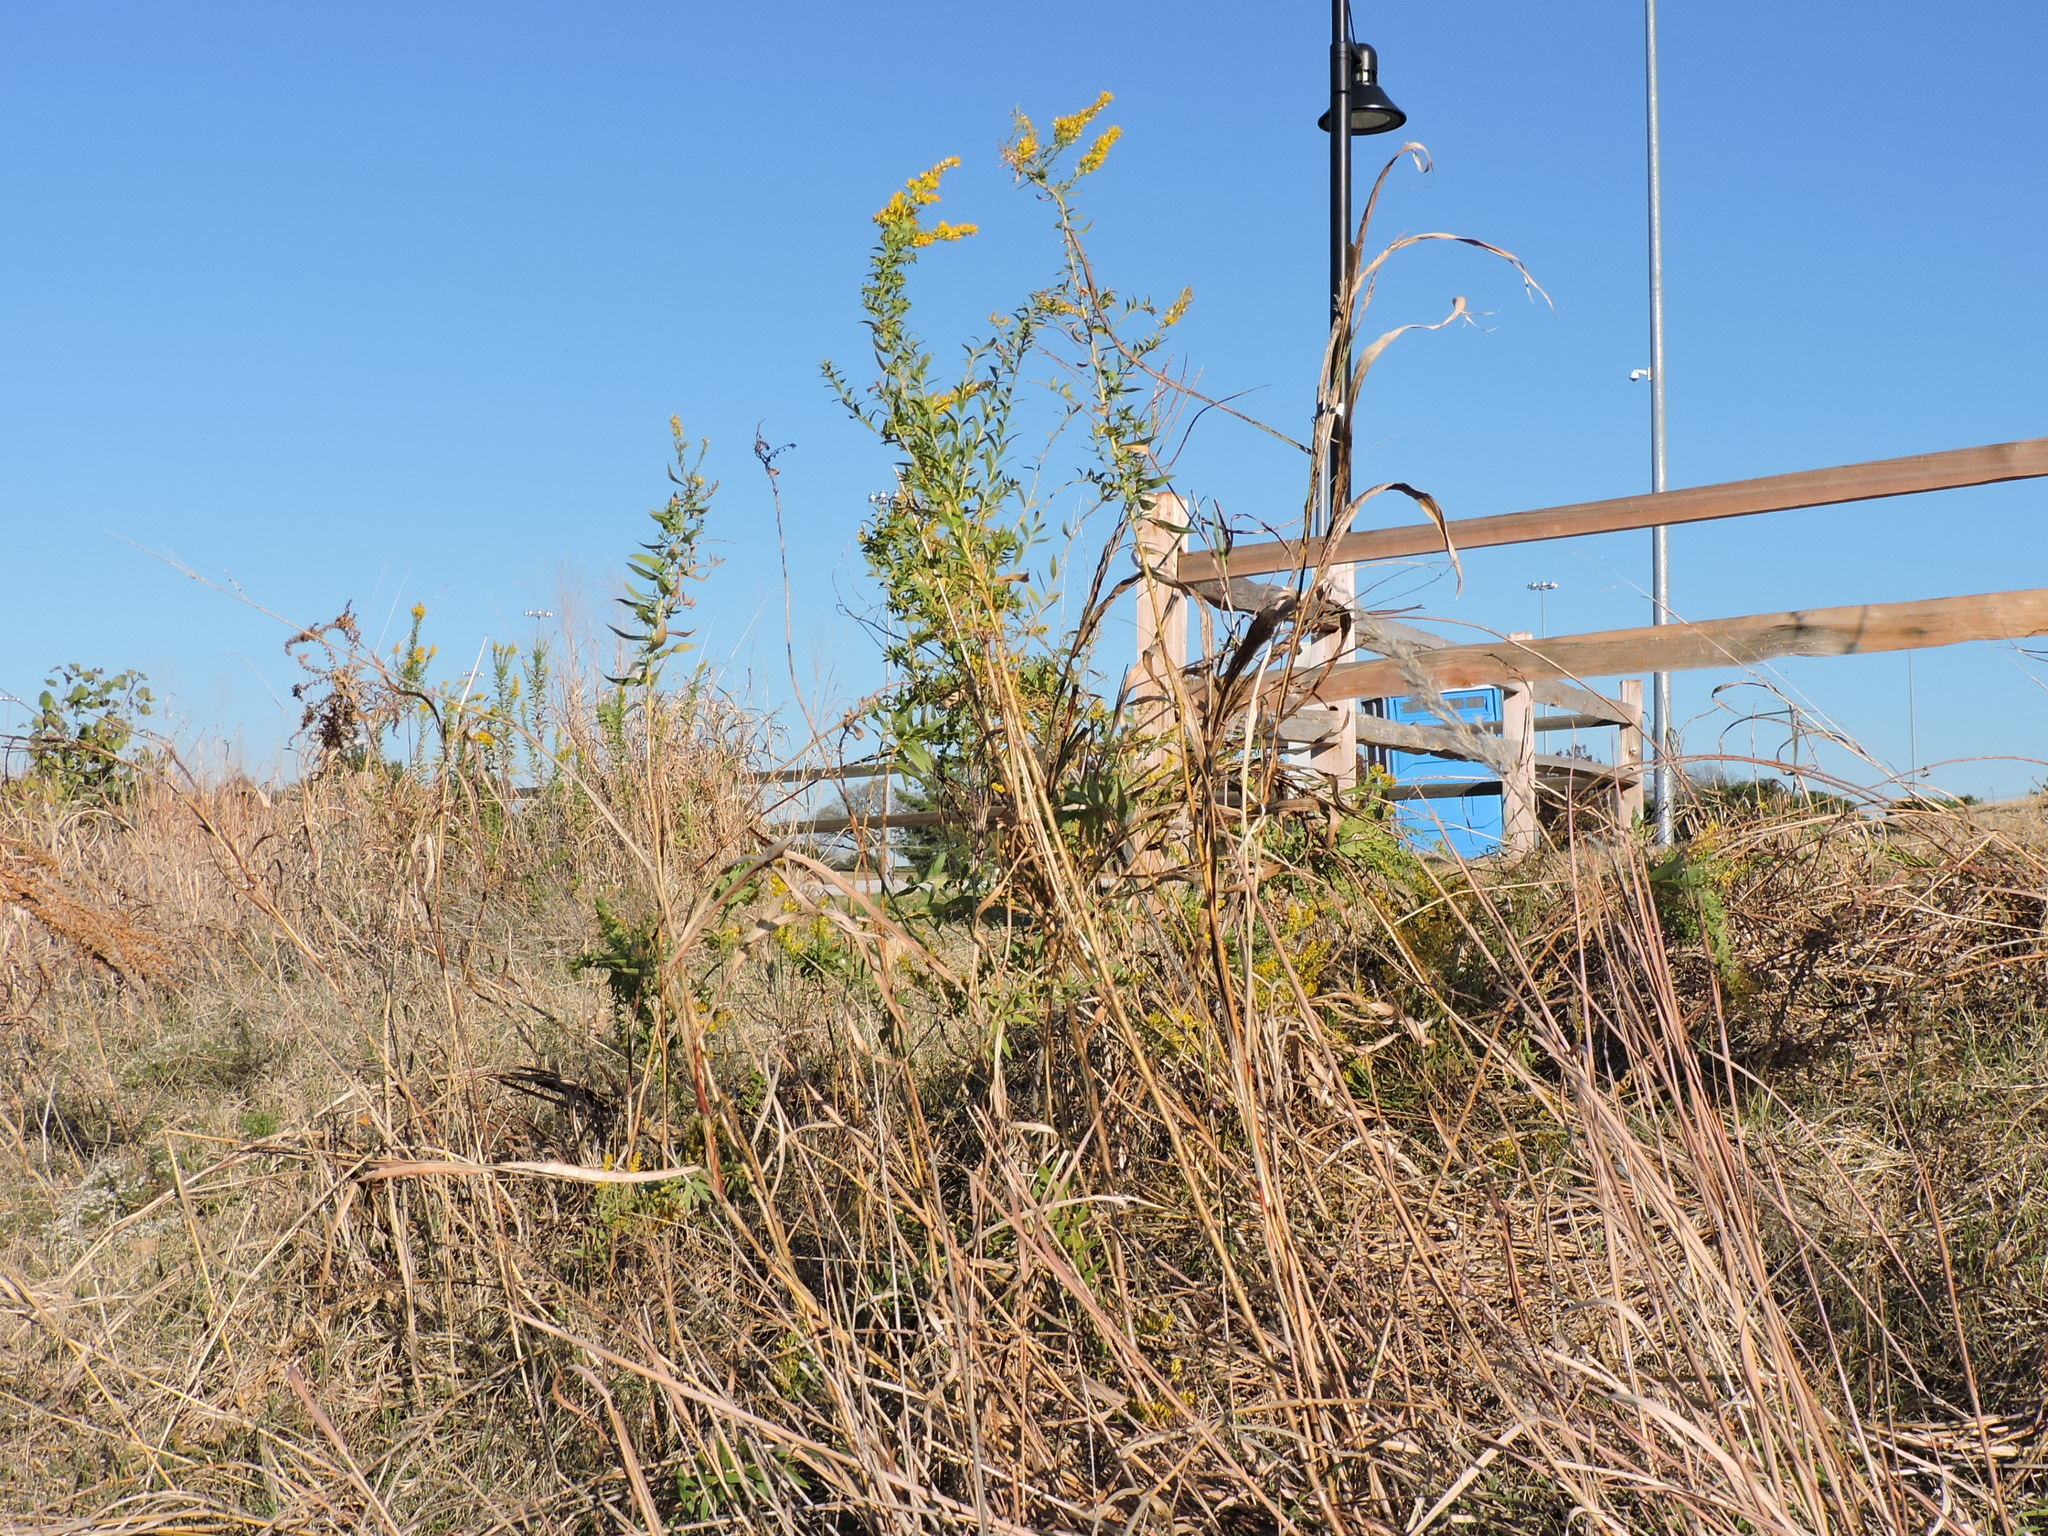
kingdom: Plantae
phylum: Tracheophyta
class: Magnoliopsida
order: Asterales
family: Asteraceae
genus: Solidago
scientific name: Solidago altissima
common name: Late goldenrod
